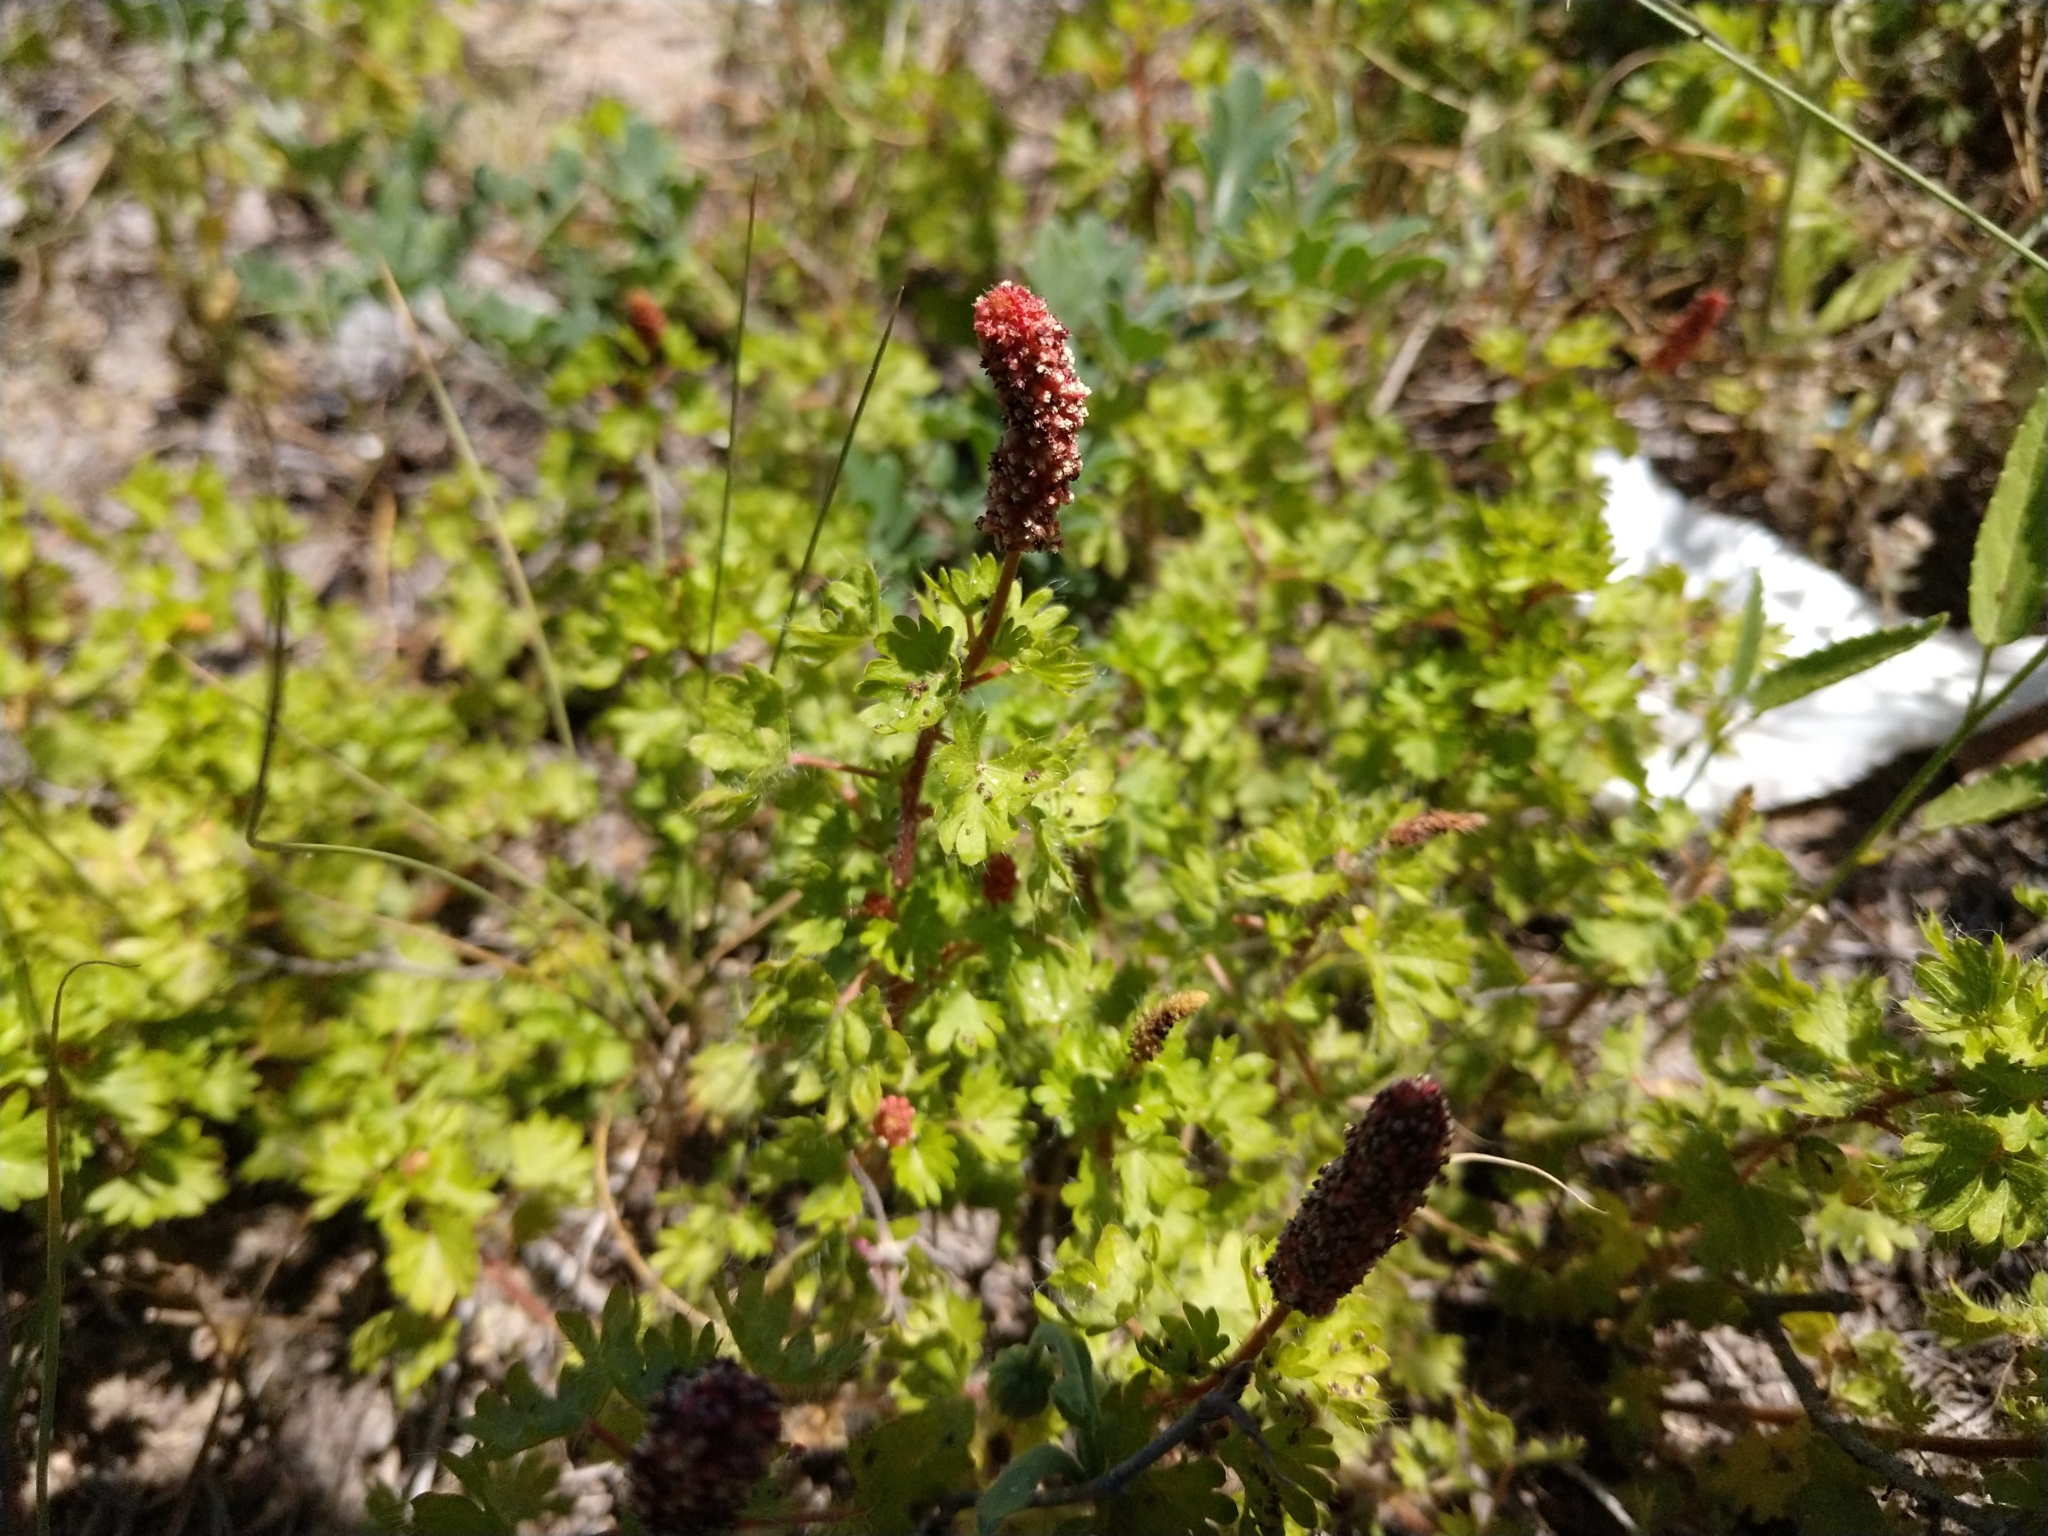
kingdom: Plantae
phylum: Tracheophyta
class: Magnoliopsida
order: Malpighiales
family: Euphorbiaceae
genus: Acalypha
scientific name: Acalypha radians
